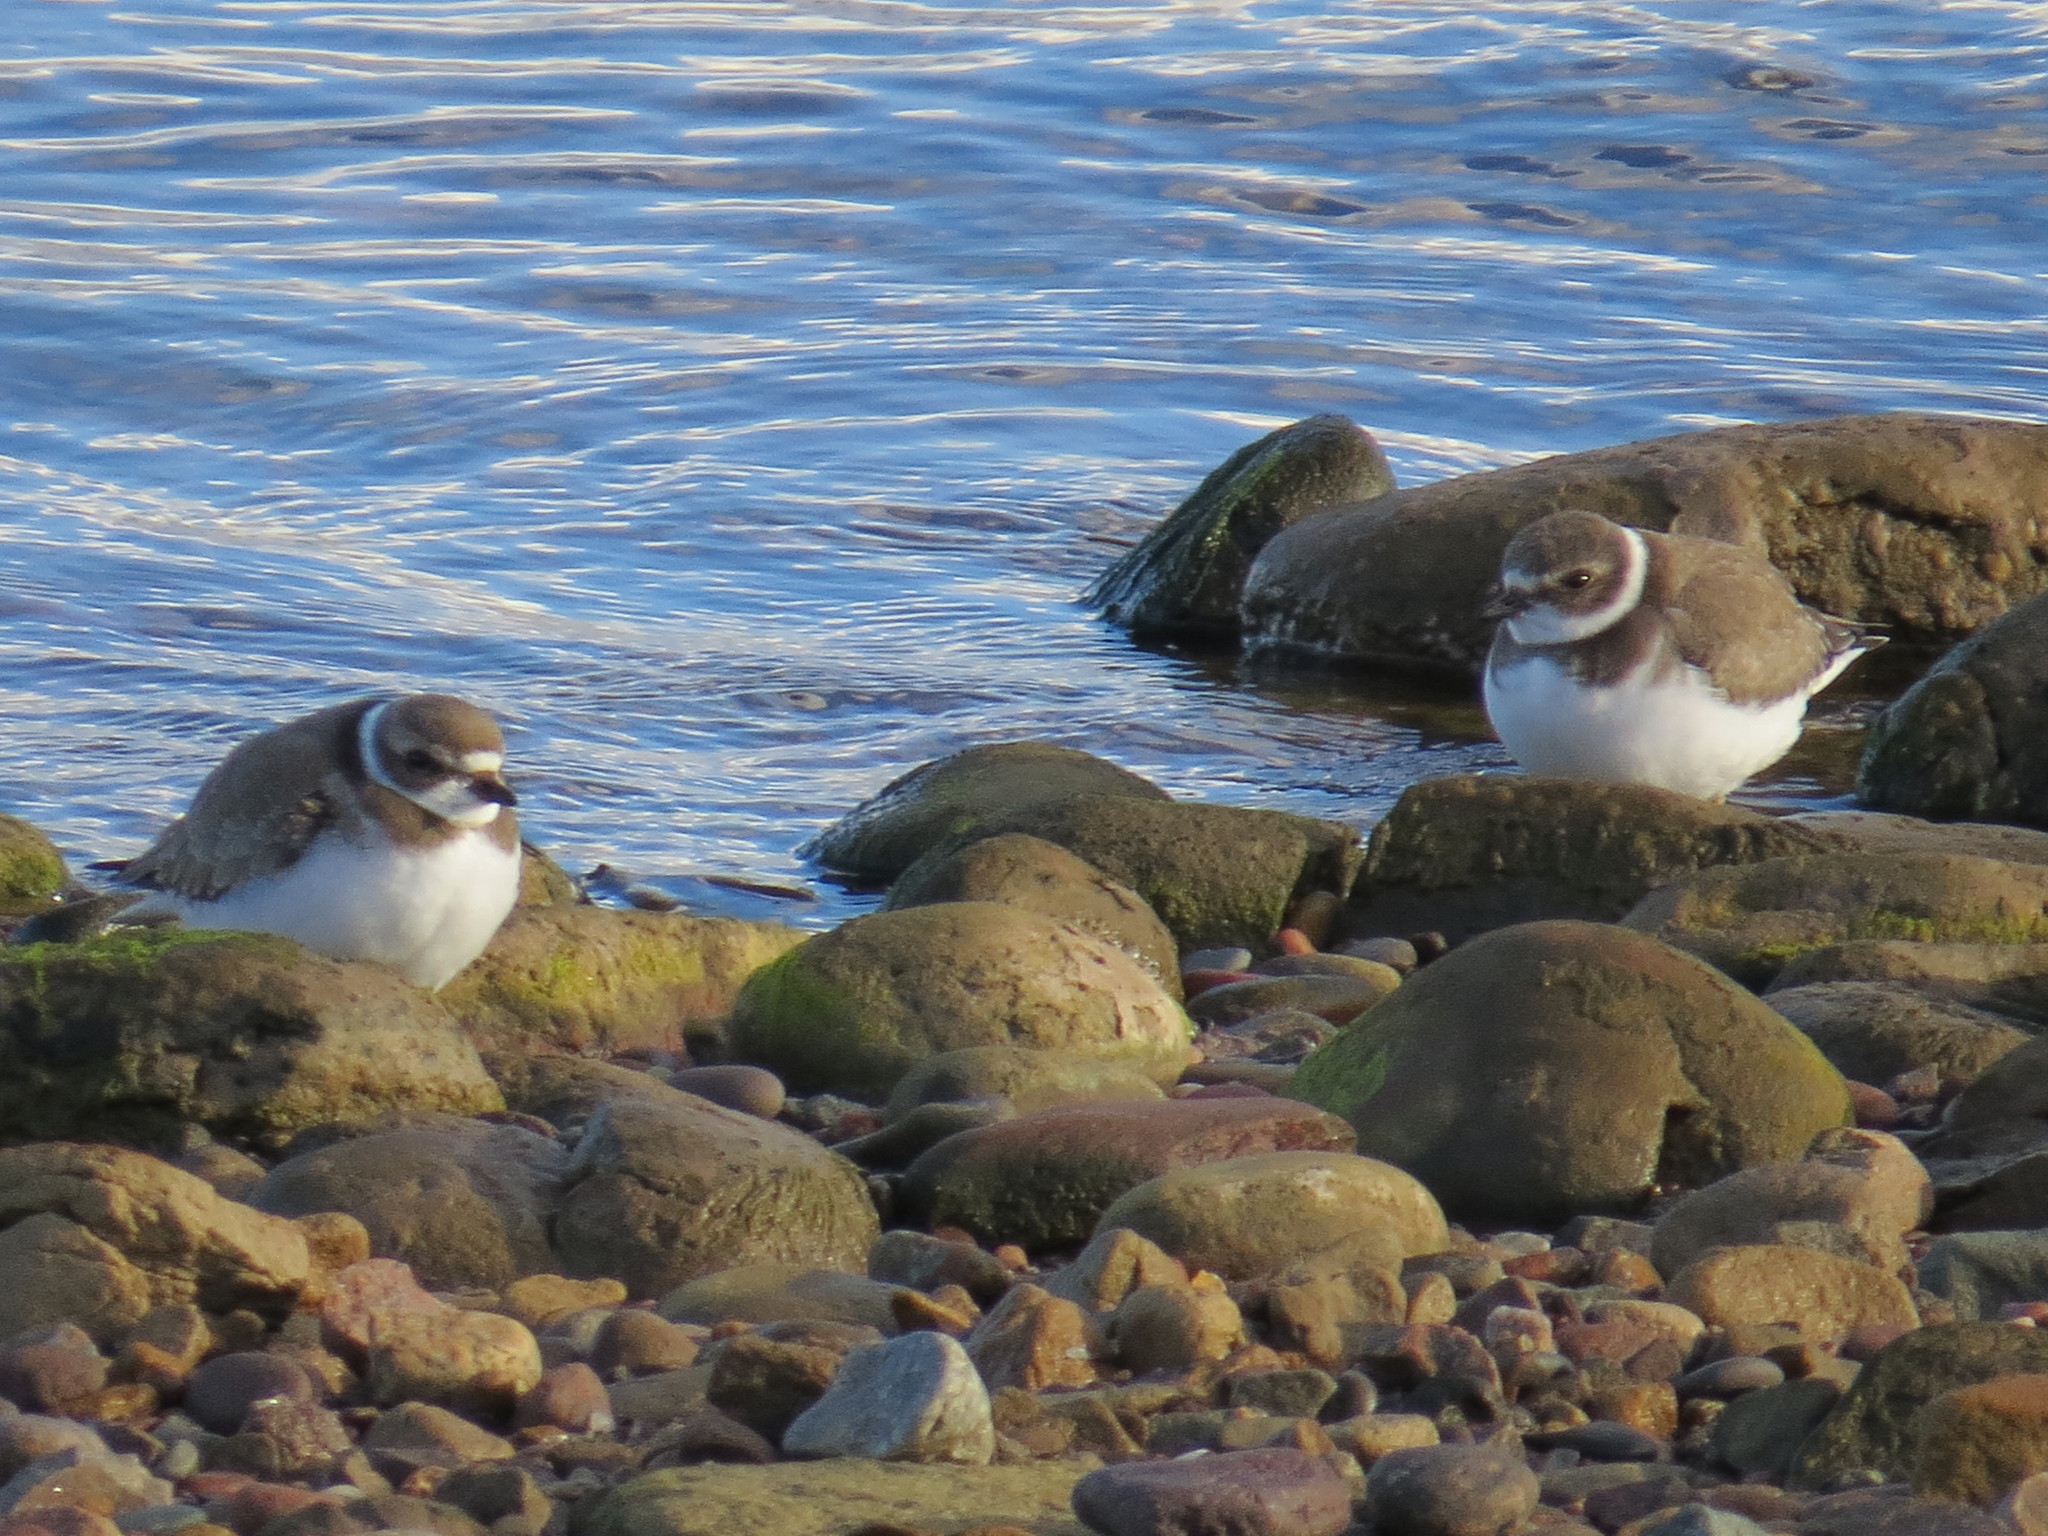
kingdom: Animalia
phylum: Chordata
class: Aves
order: Charadriiformes
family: Charadriidae
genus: Charadrius
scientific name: Charadrius semipalmatus
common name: Semipalmated plover
